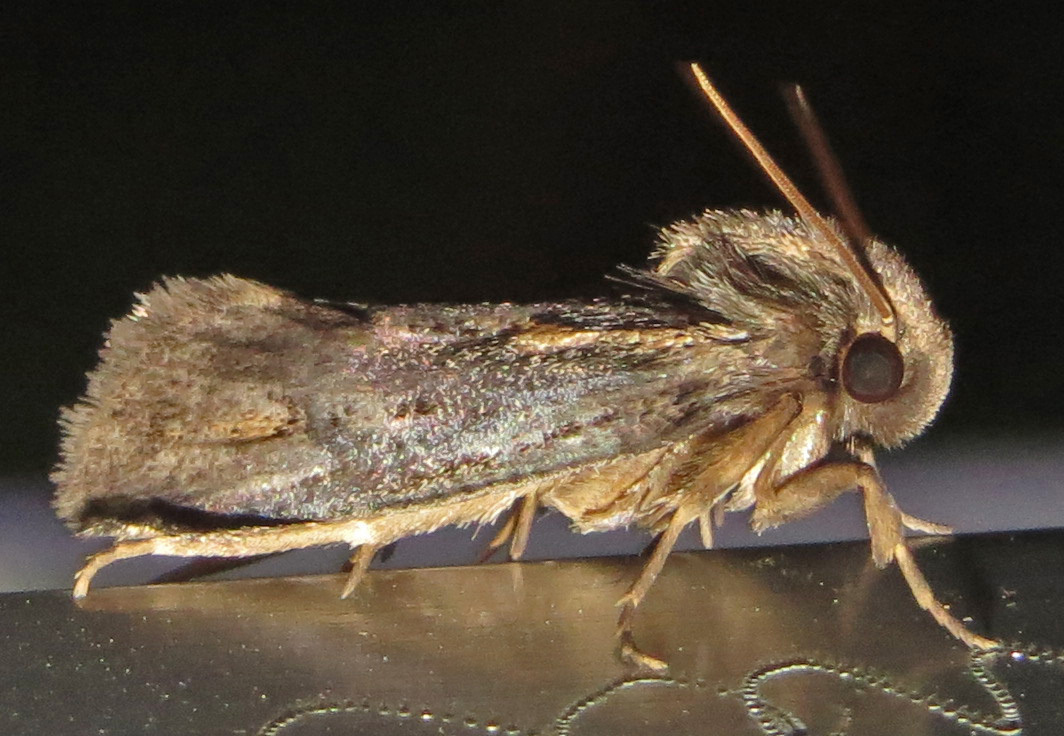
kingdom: Animalia
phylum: Arthropoda
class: Insecta
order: Lepidoptera
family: Tineidae
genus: Acrolophus
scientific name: Acrolophus popeanella
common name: Clemens' grass tubeworm moth
